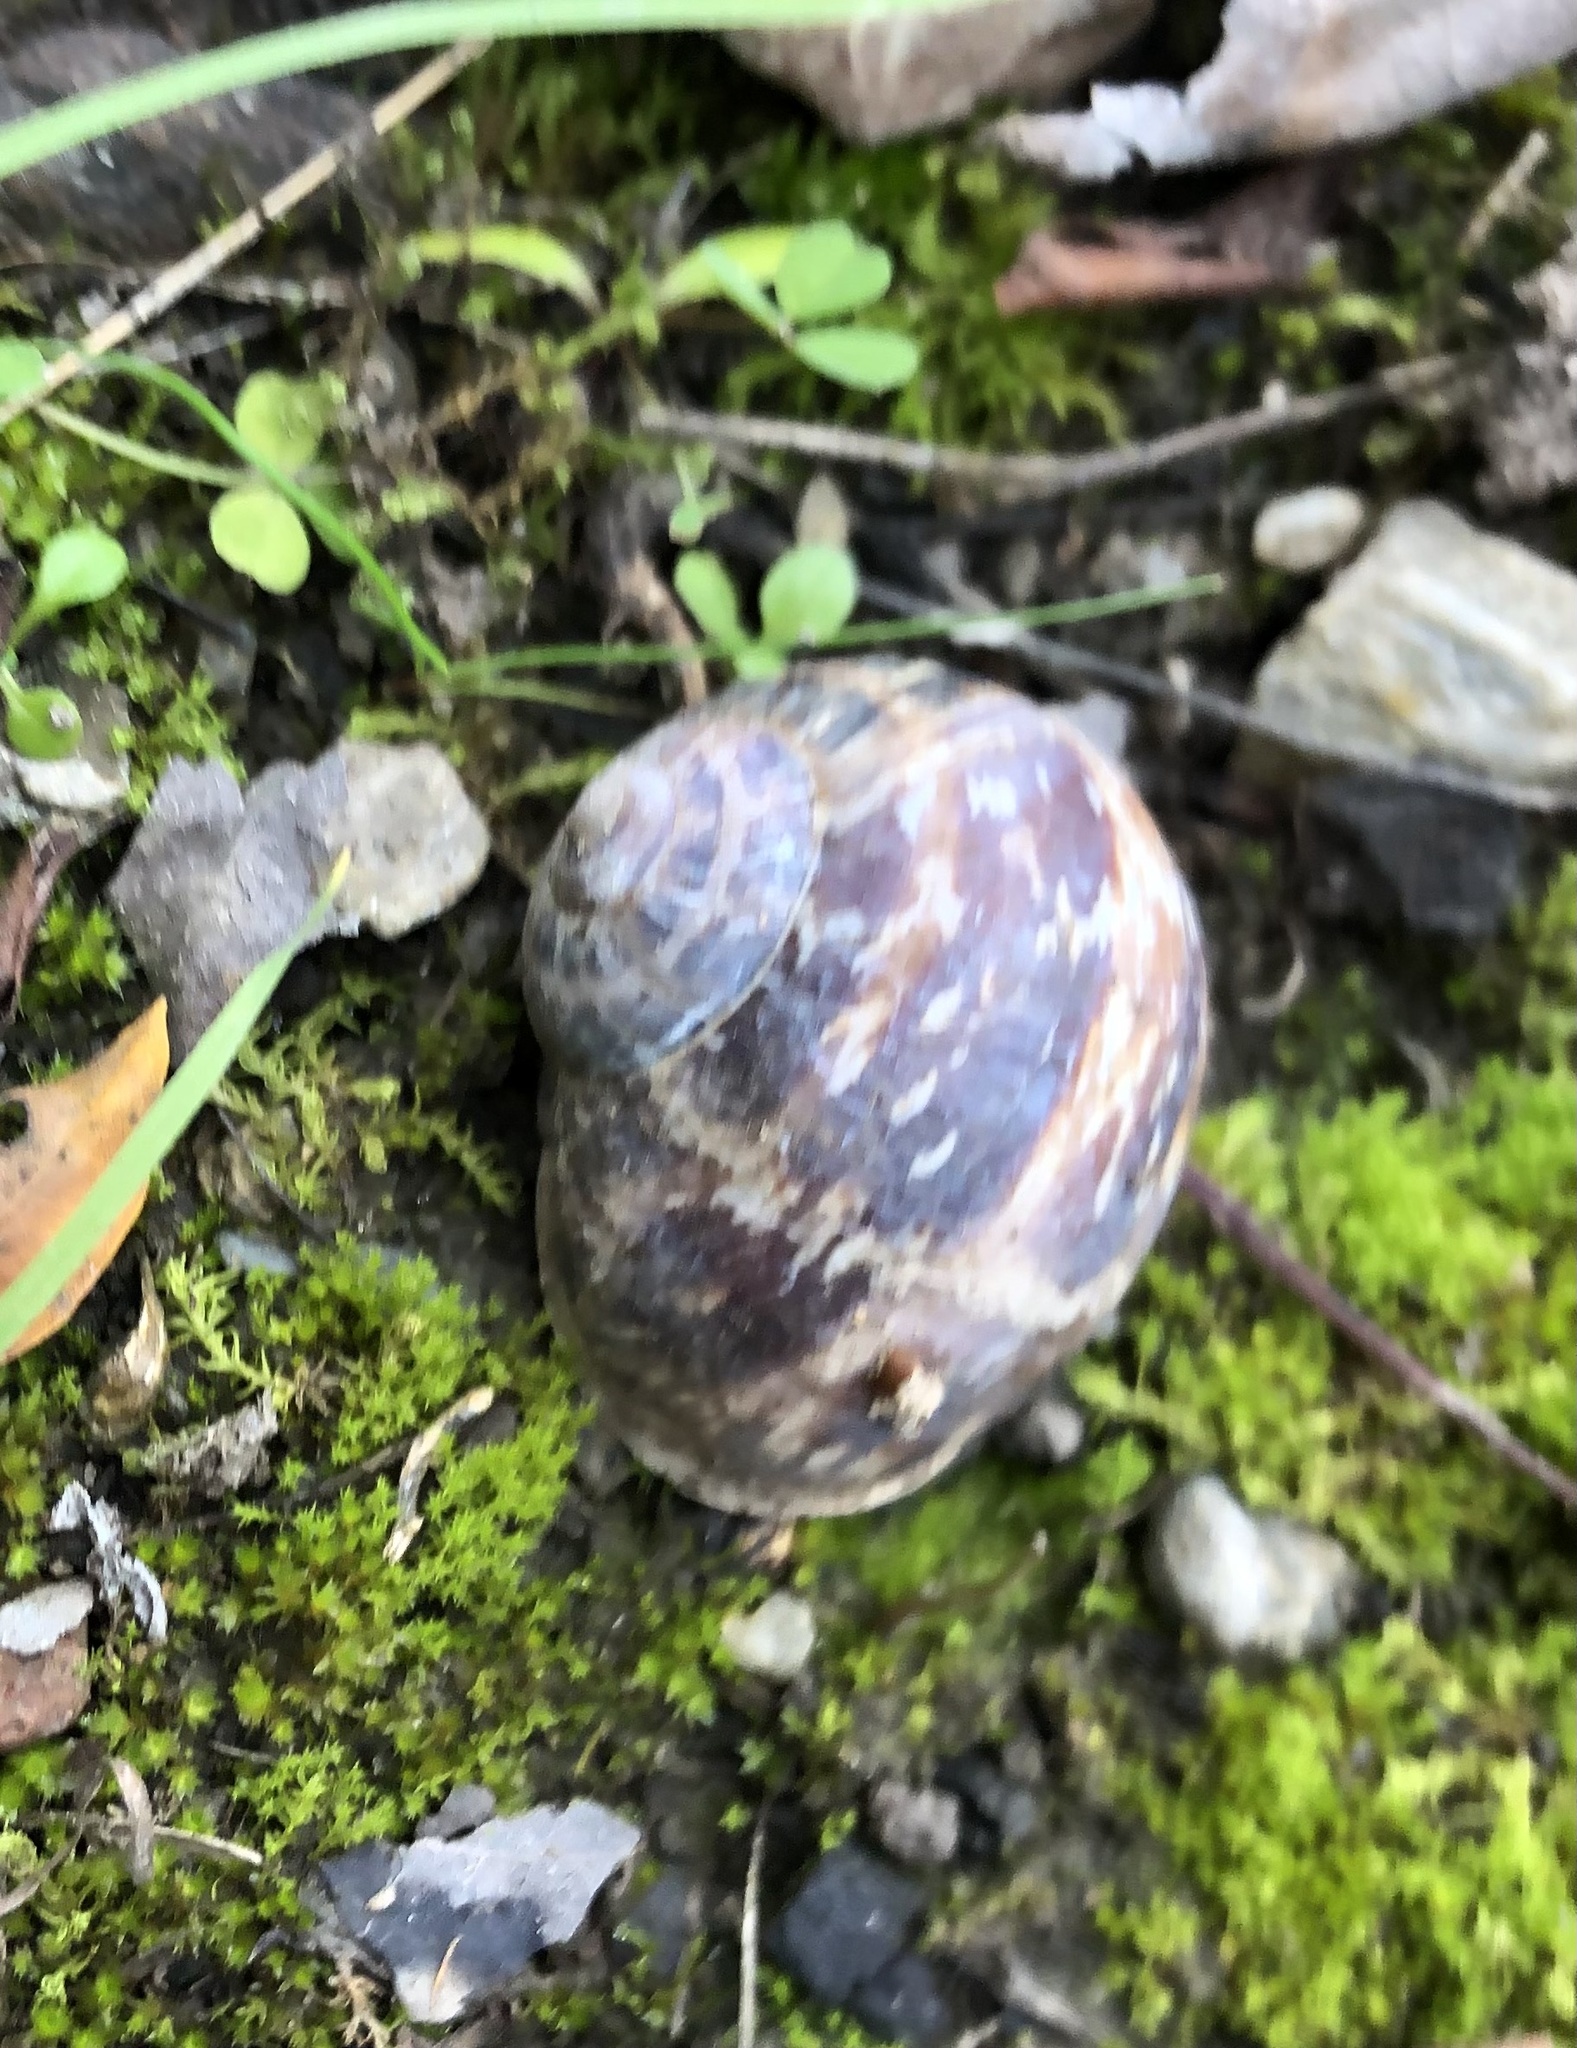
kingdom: Animalia
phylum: Mollusca
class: Gastropoda
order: Stylommatophora
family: Helicidae
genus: Cornu
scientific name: Cornu aspersum
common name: Brown garden snail
